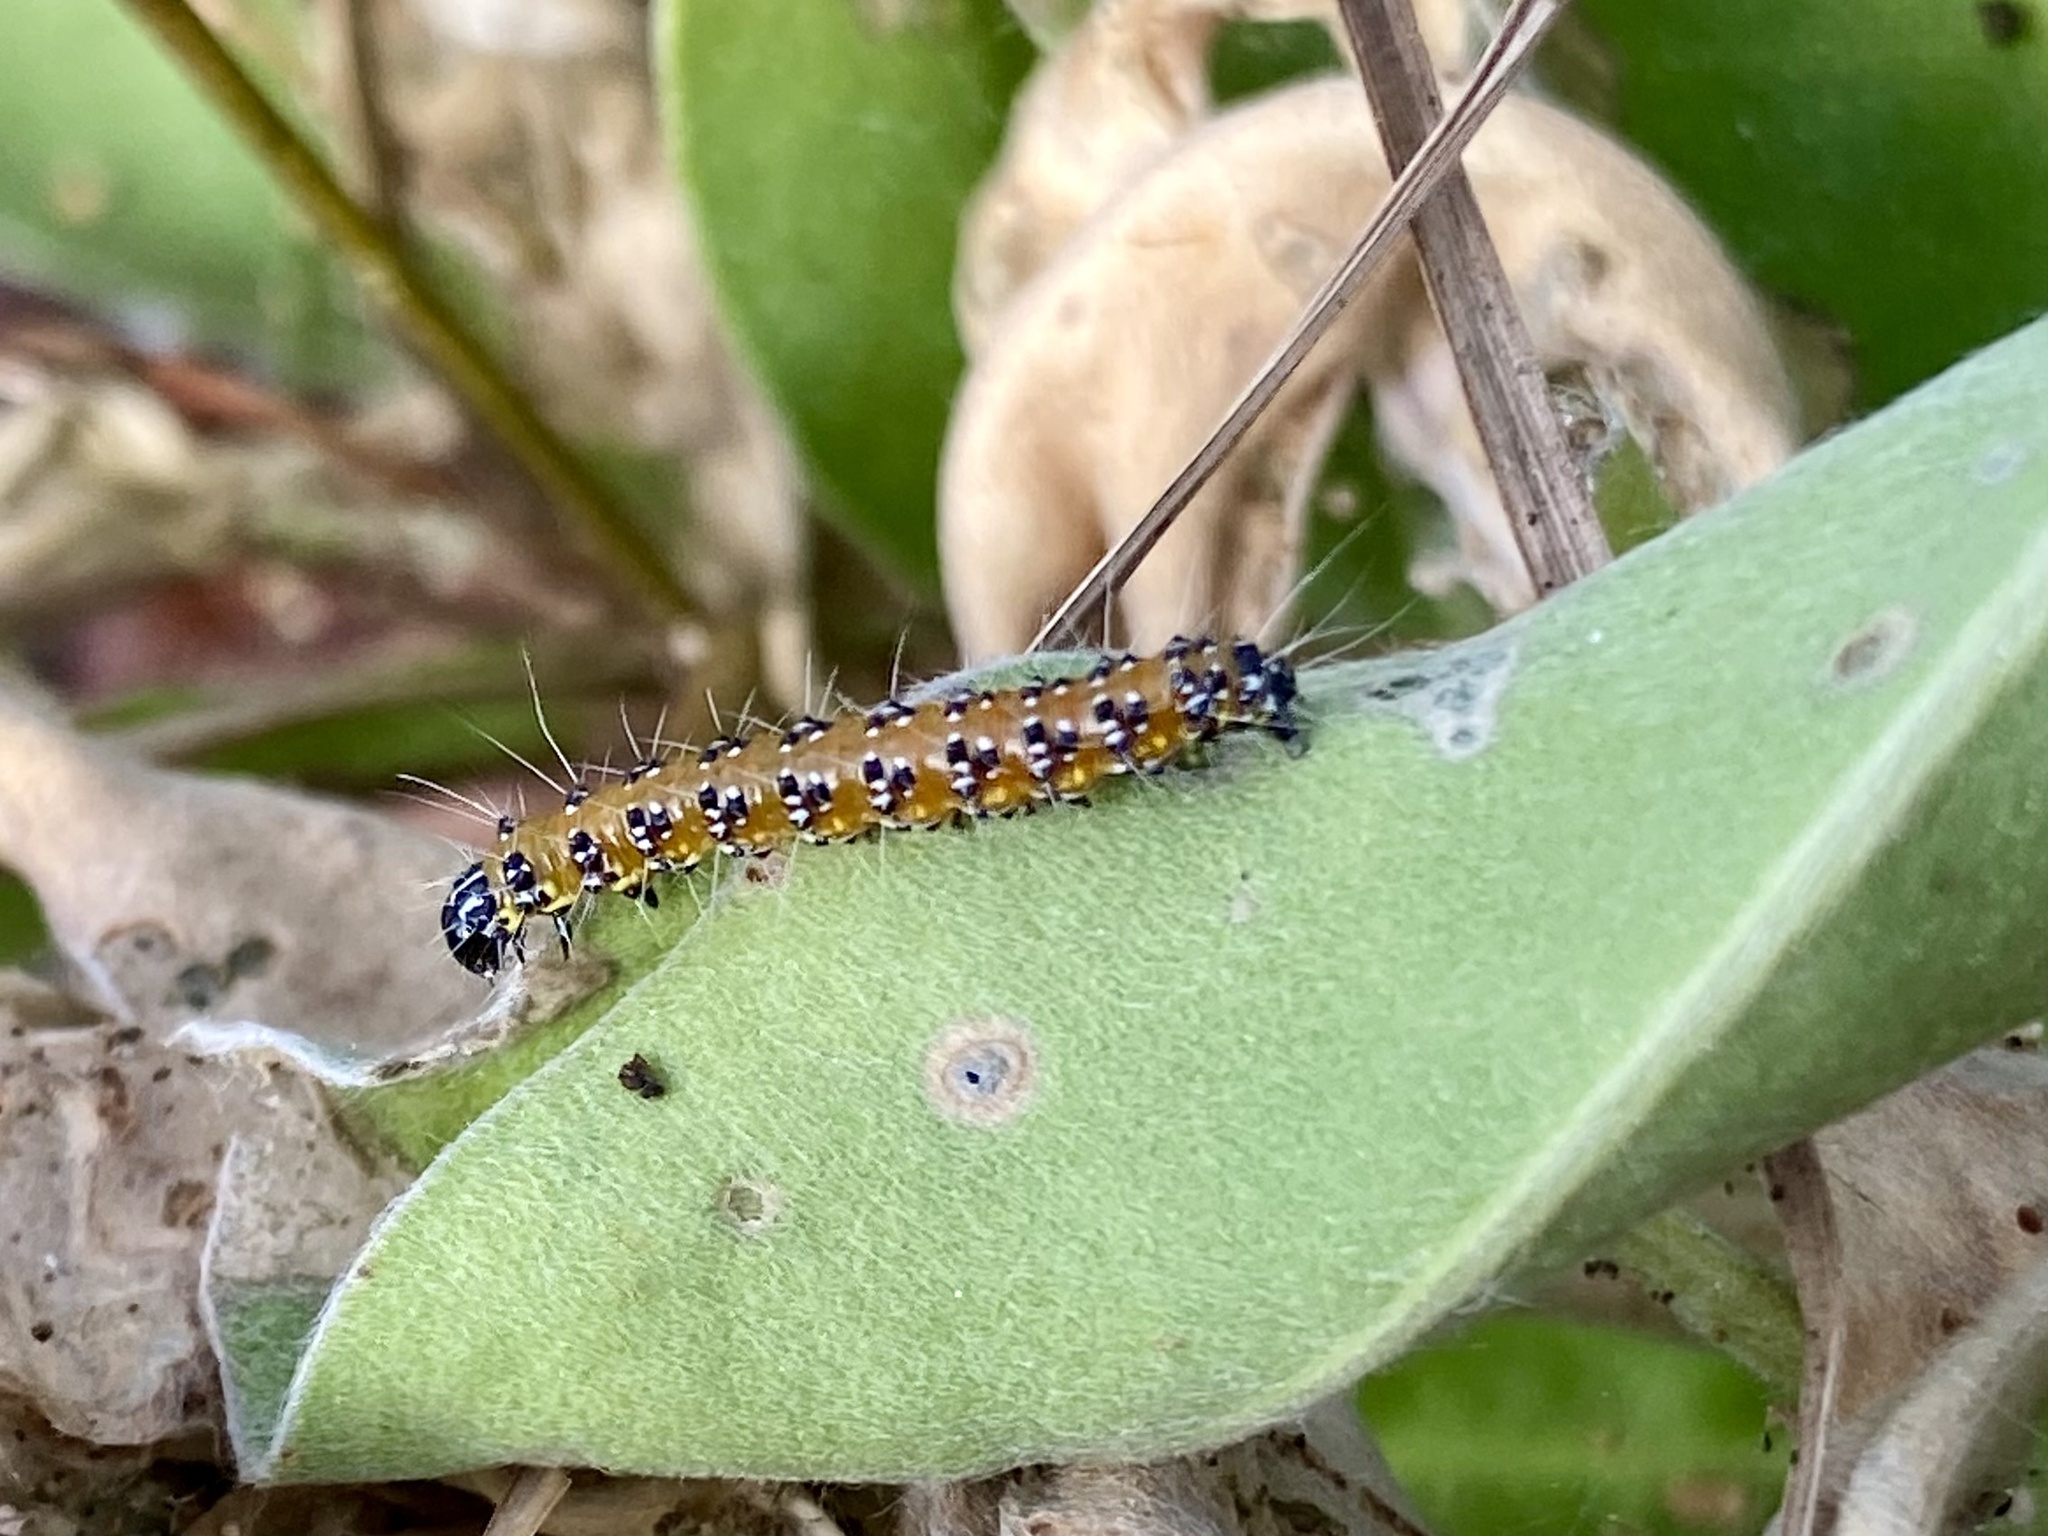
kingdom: Animalia
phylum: Arthropoda
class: Insecta
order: Lepidoptera
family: Crambidae
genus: Uresiphita
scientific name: Uresiphita reversalis
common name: Genista broom moth
